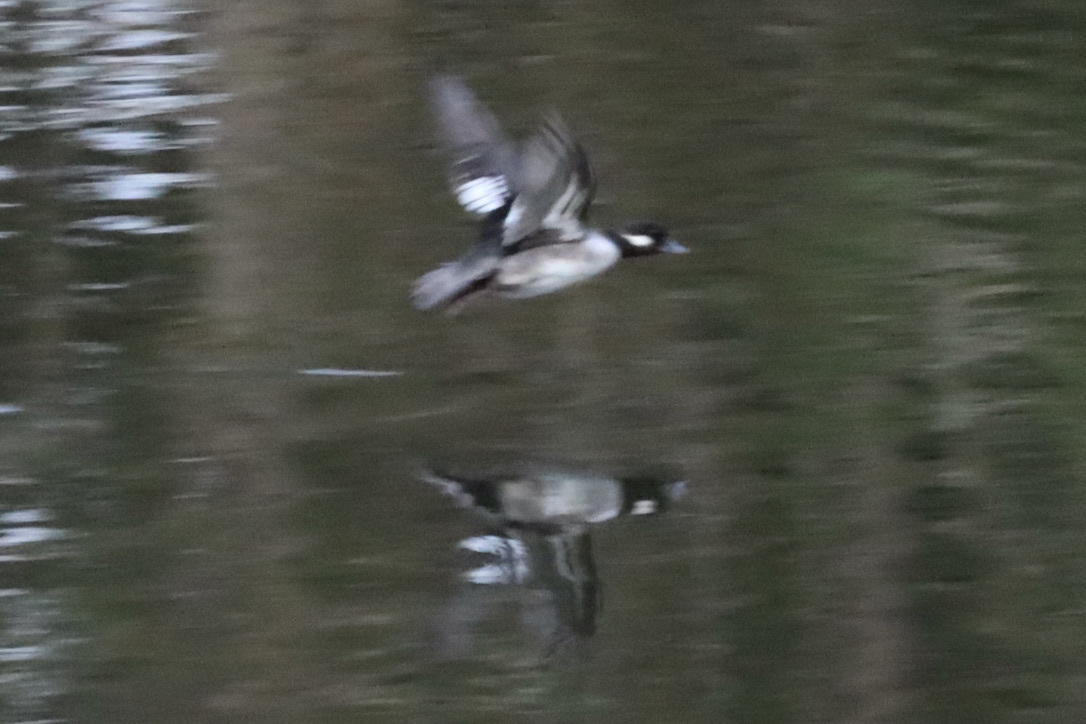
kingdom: Animalia
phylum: Chordata
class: Aves
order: Anseriformes
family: Anatidae
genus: Bucephala
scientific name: Bucephala albeola
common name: Bufflehead
